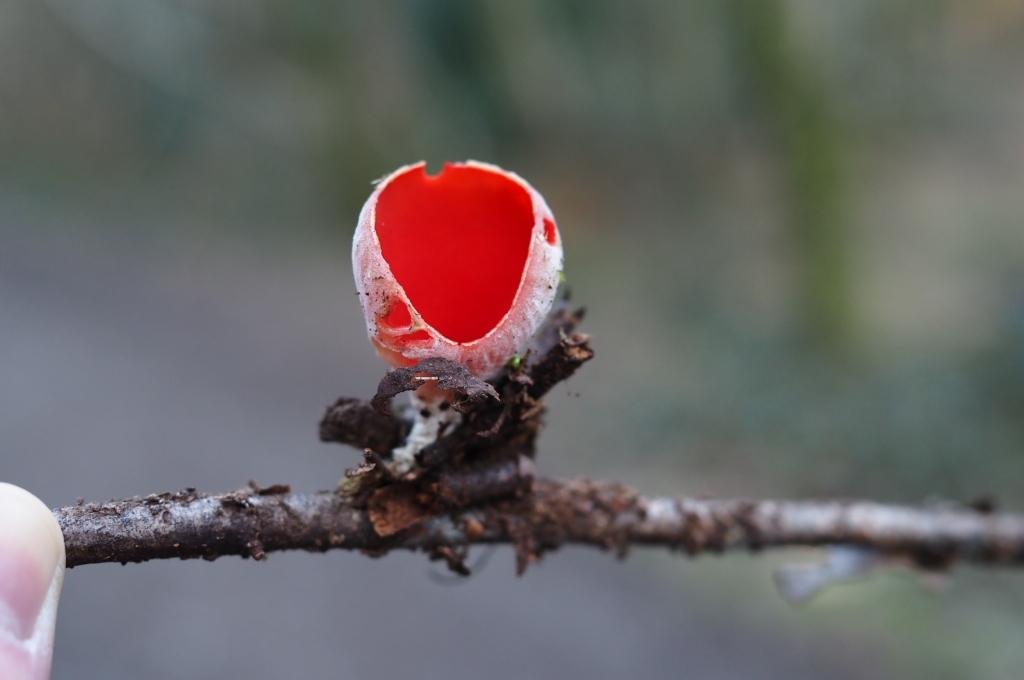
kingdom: Fungi
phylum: Ascomycota
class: Pezizomycetes
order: Pezizales
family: Sarcoscyphaceae
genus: Sarcoscypha
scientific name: Sarcoscypha
